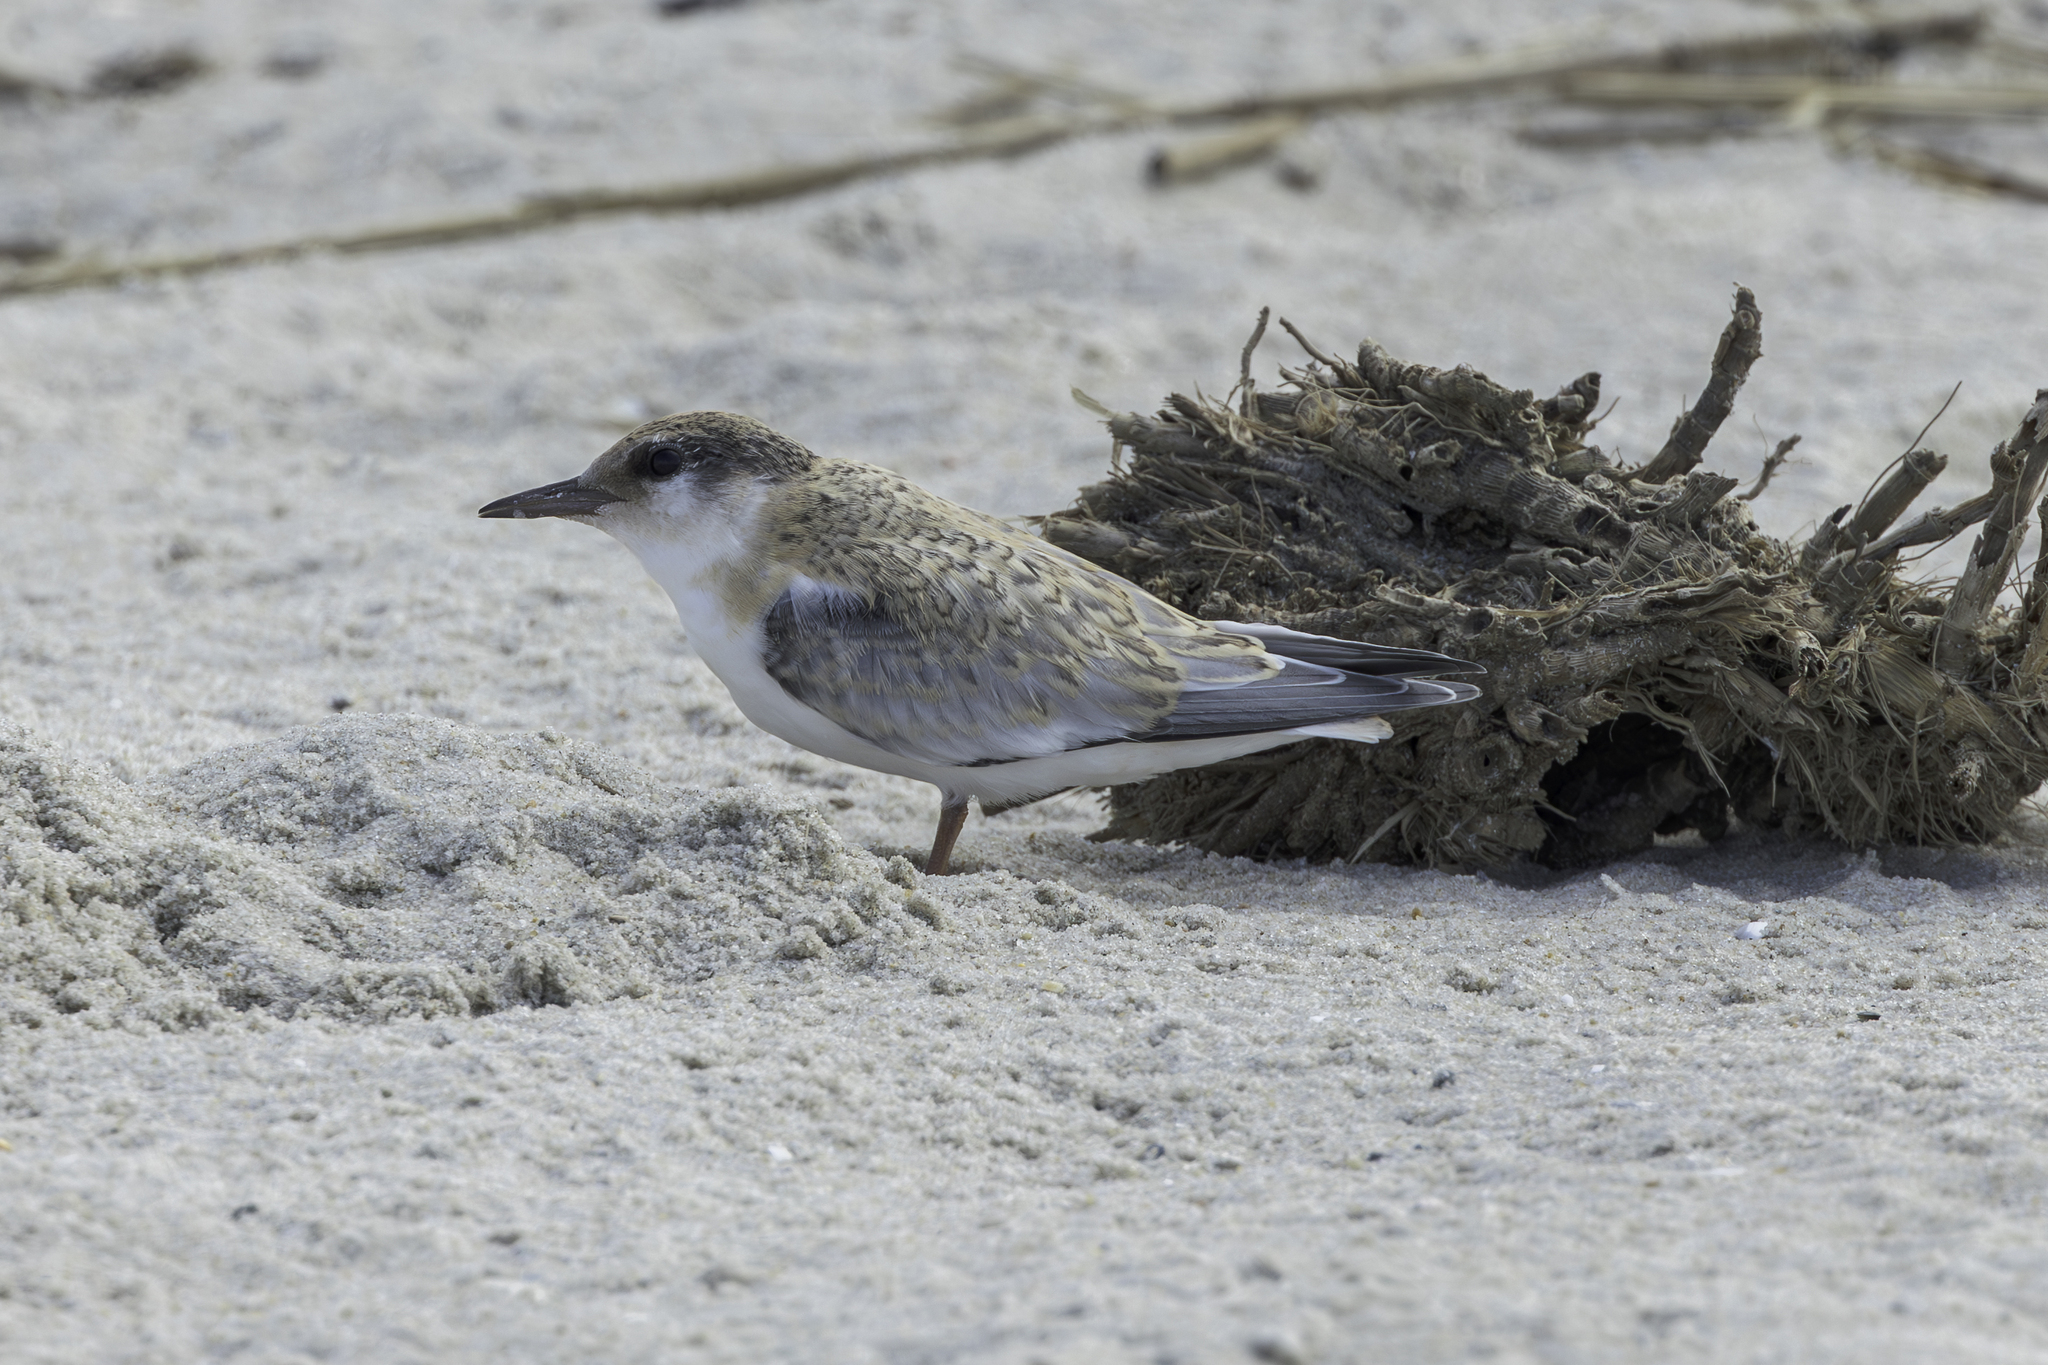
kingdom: Animalia
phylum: Chordata
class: Aves
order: Charadriiformes
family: Laridae
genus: Sternula
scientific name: Sternula antillarum
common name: Least tern
